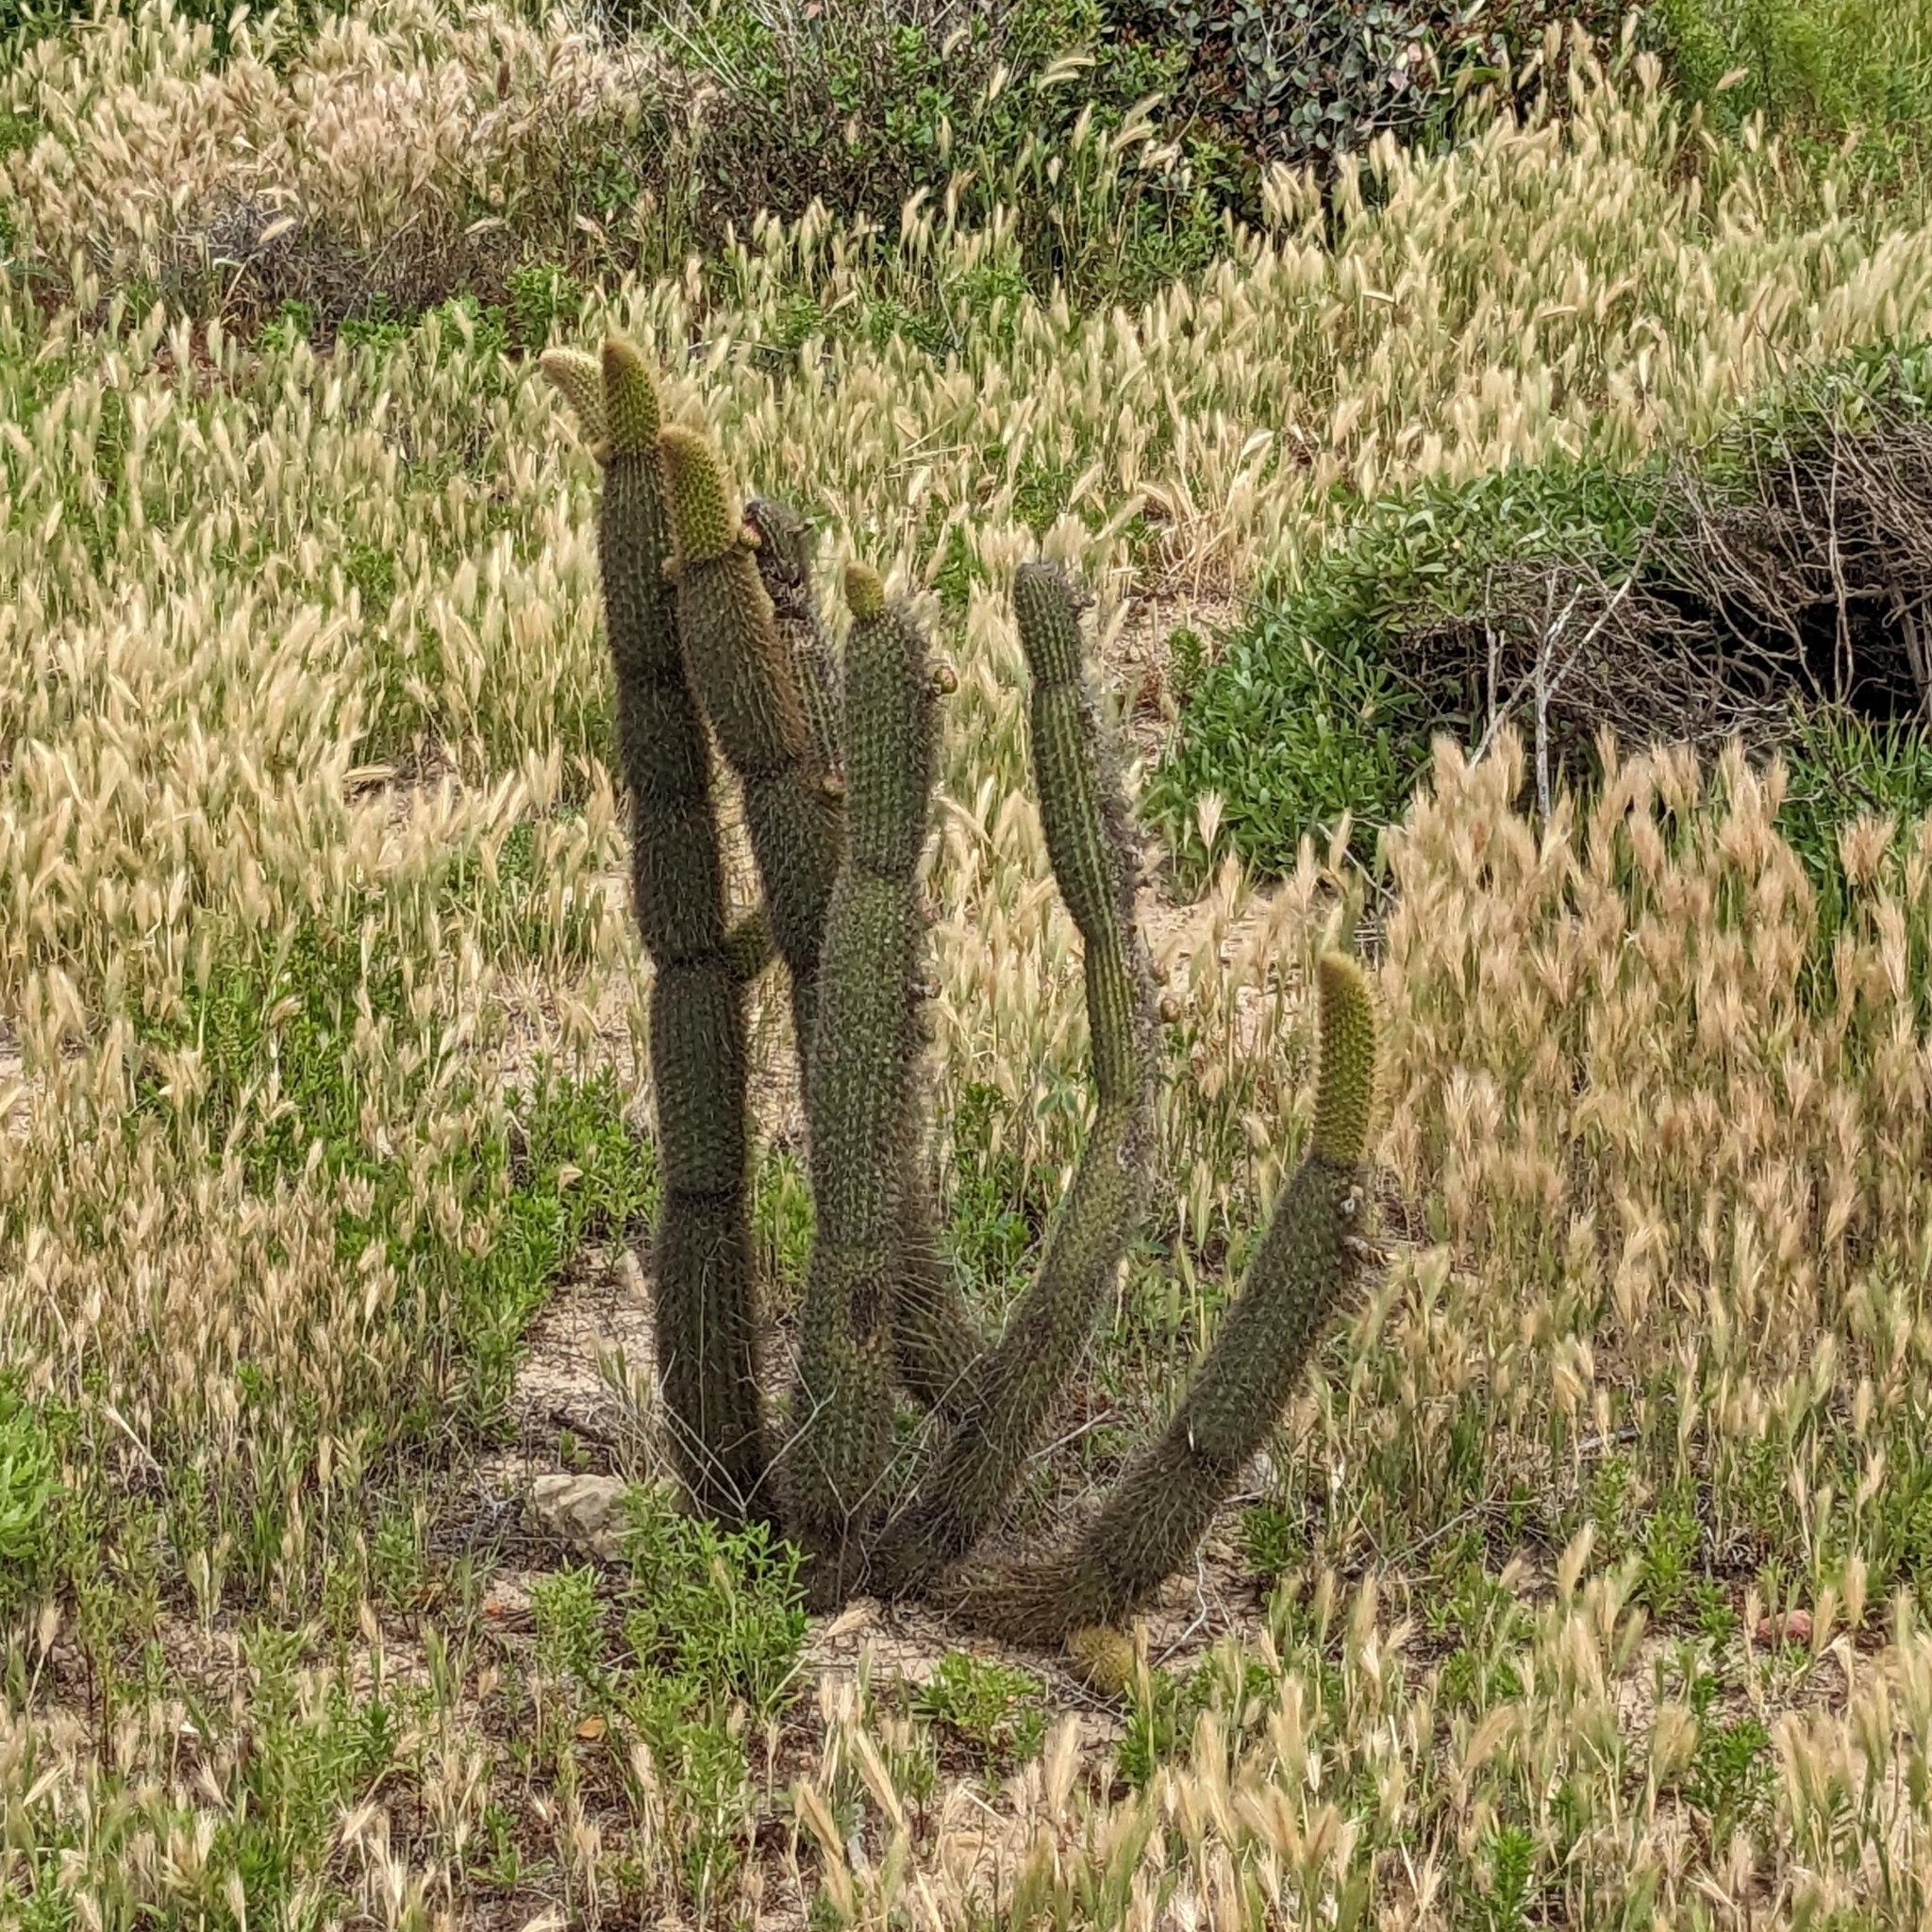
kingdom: Plantae
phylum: Tracheophyta
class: Magnoliopsida
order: Caryophyllales
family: Cactaceae
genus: Bergerocactus
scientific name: Bergerocactus emoryi
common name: Golden snakecactus
